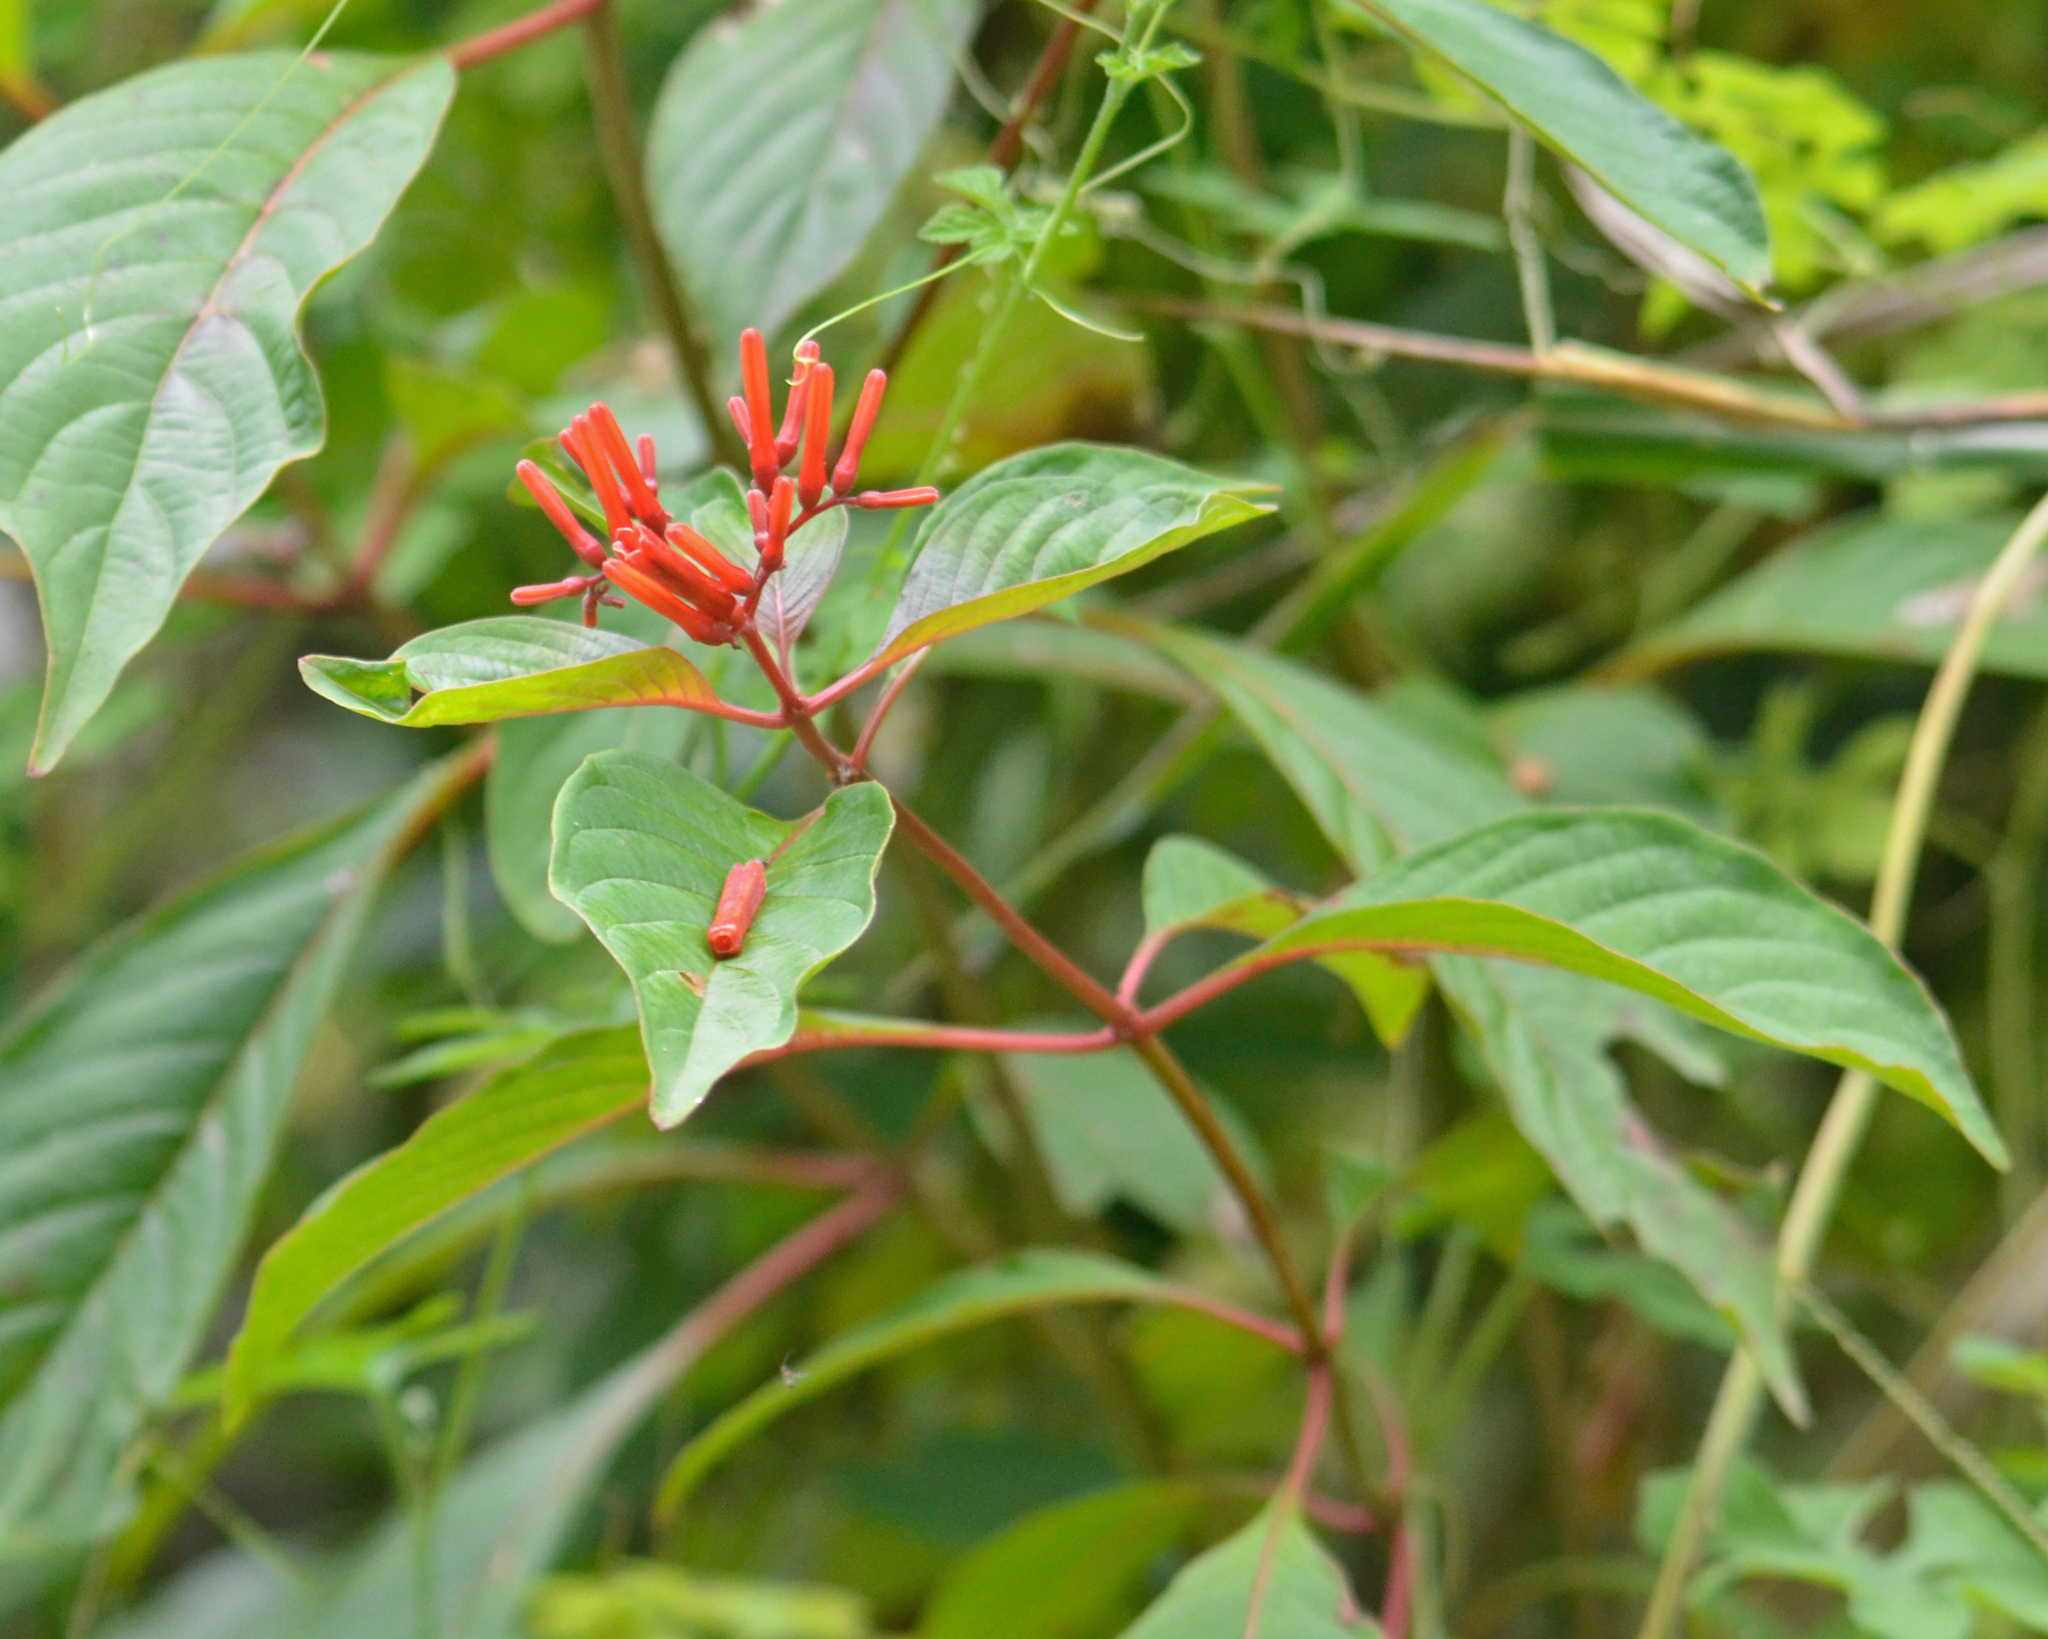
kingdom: Plantae
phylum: Tracheophyta
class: Magnoliopsida
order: Gentianales
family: Rubiaceae
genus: Hamelia
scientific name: Hamelia patens
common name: Redhead
